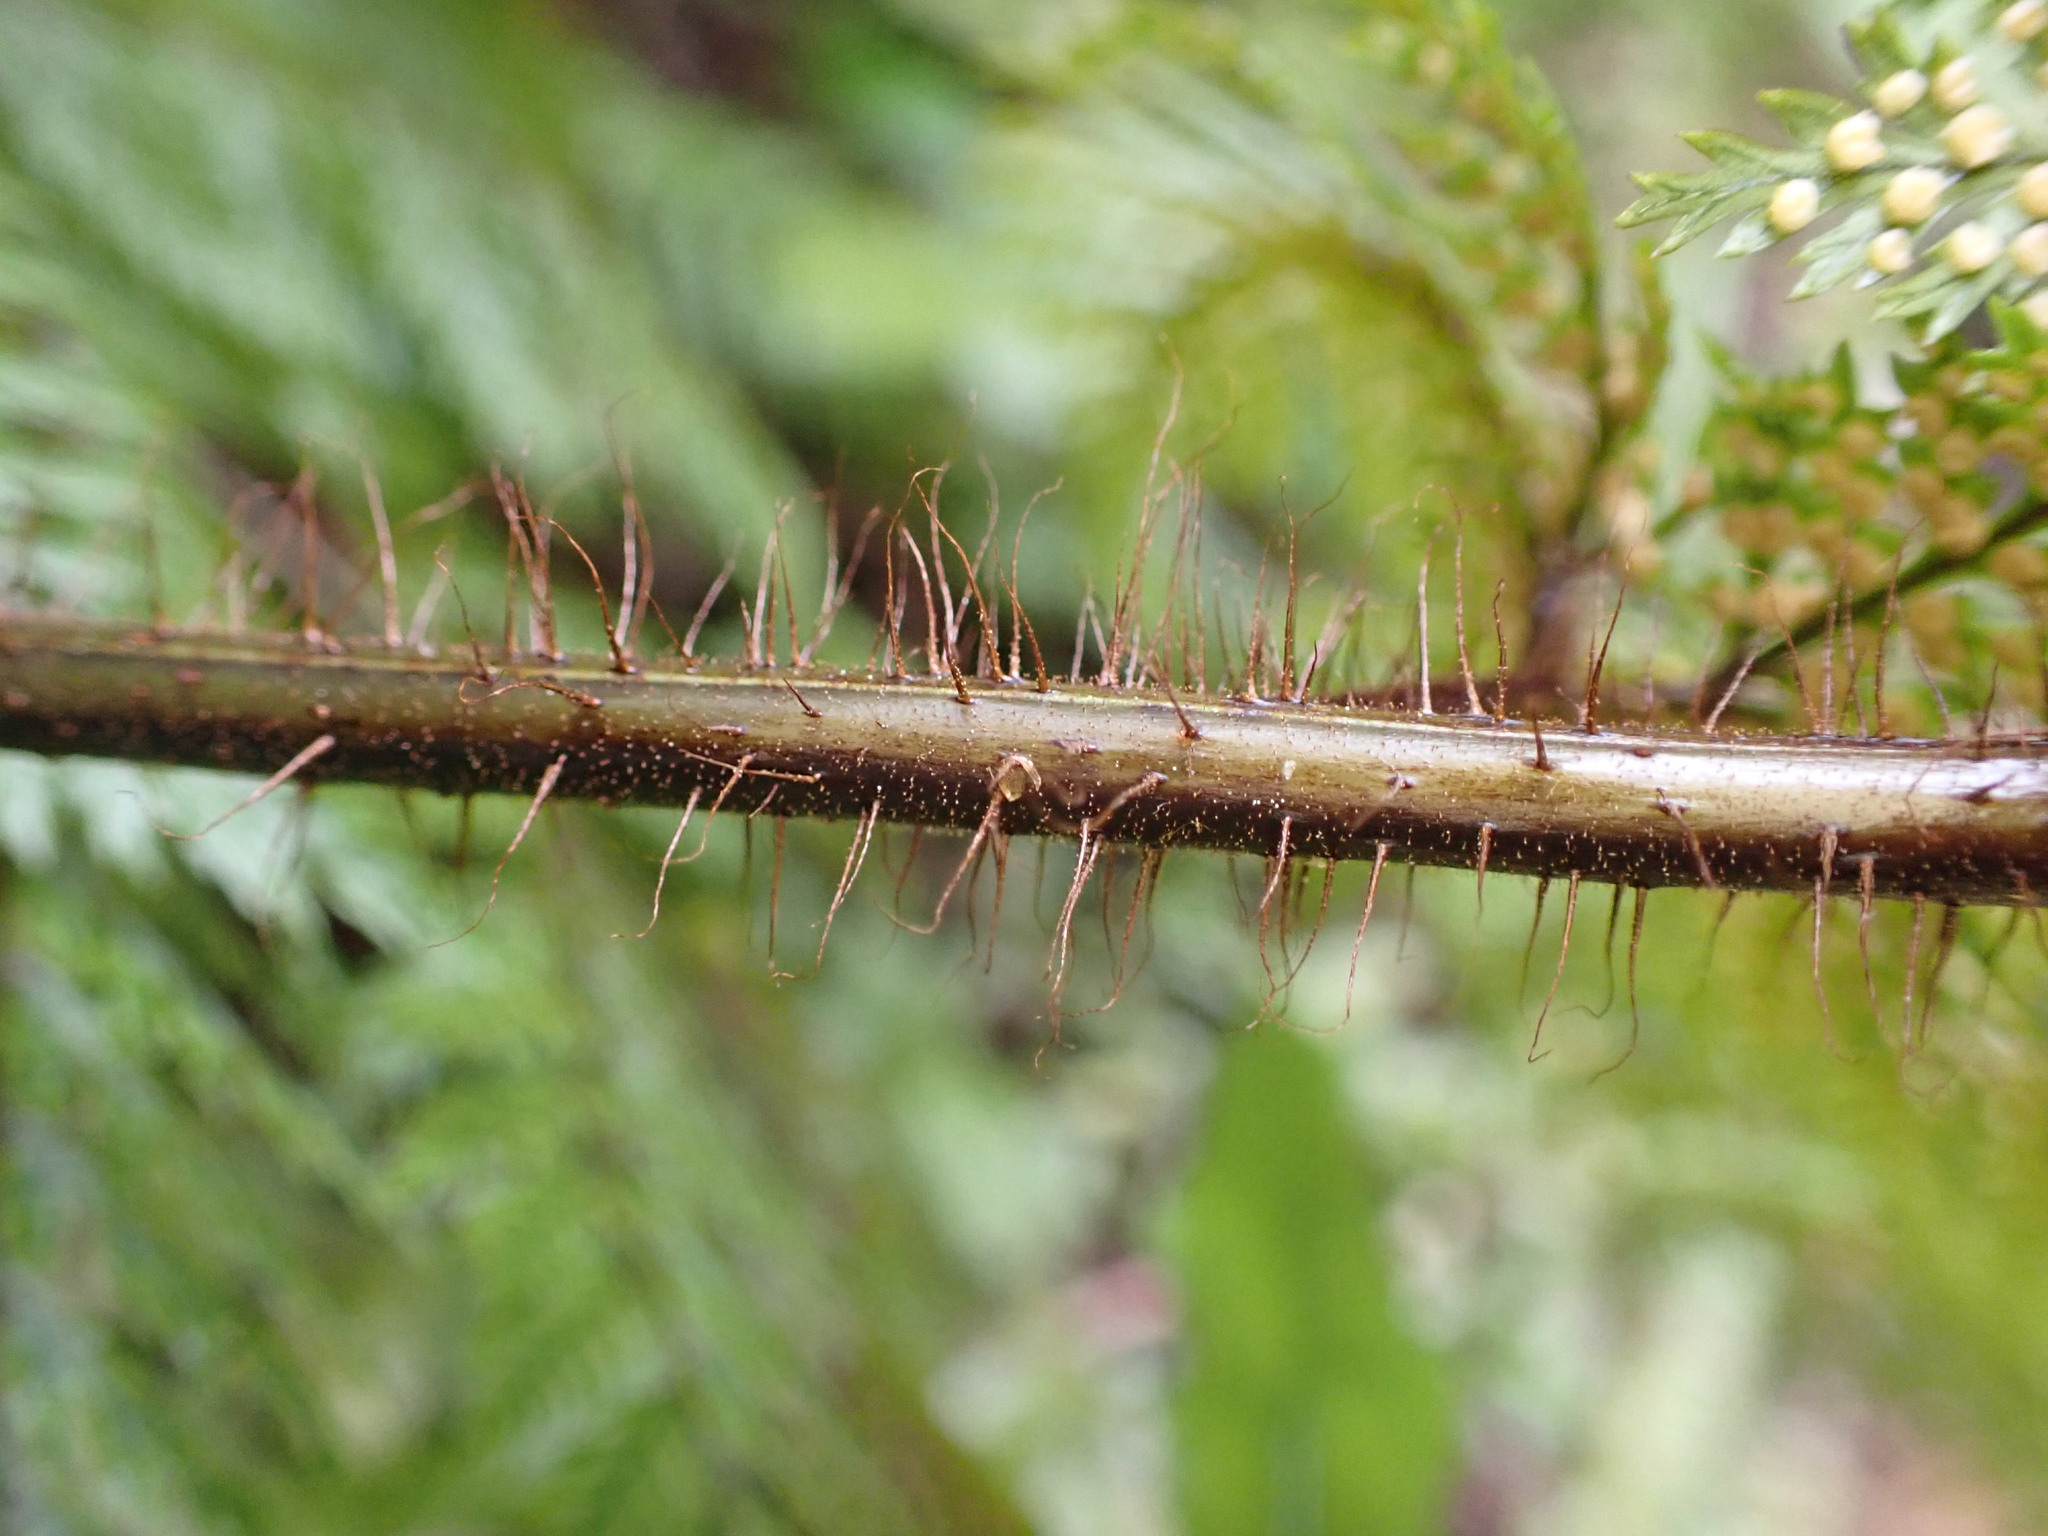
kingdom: Plantae
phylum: Tracheophyta
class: Polypodiopsida
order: Polypodiales
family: Dryopteridaceae
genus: Lastreopsis
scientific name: Lastreopsis hispida
